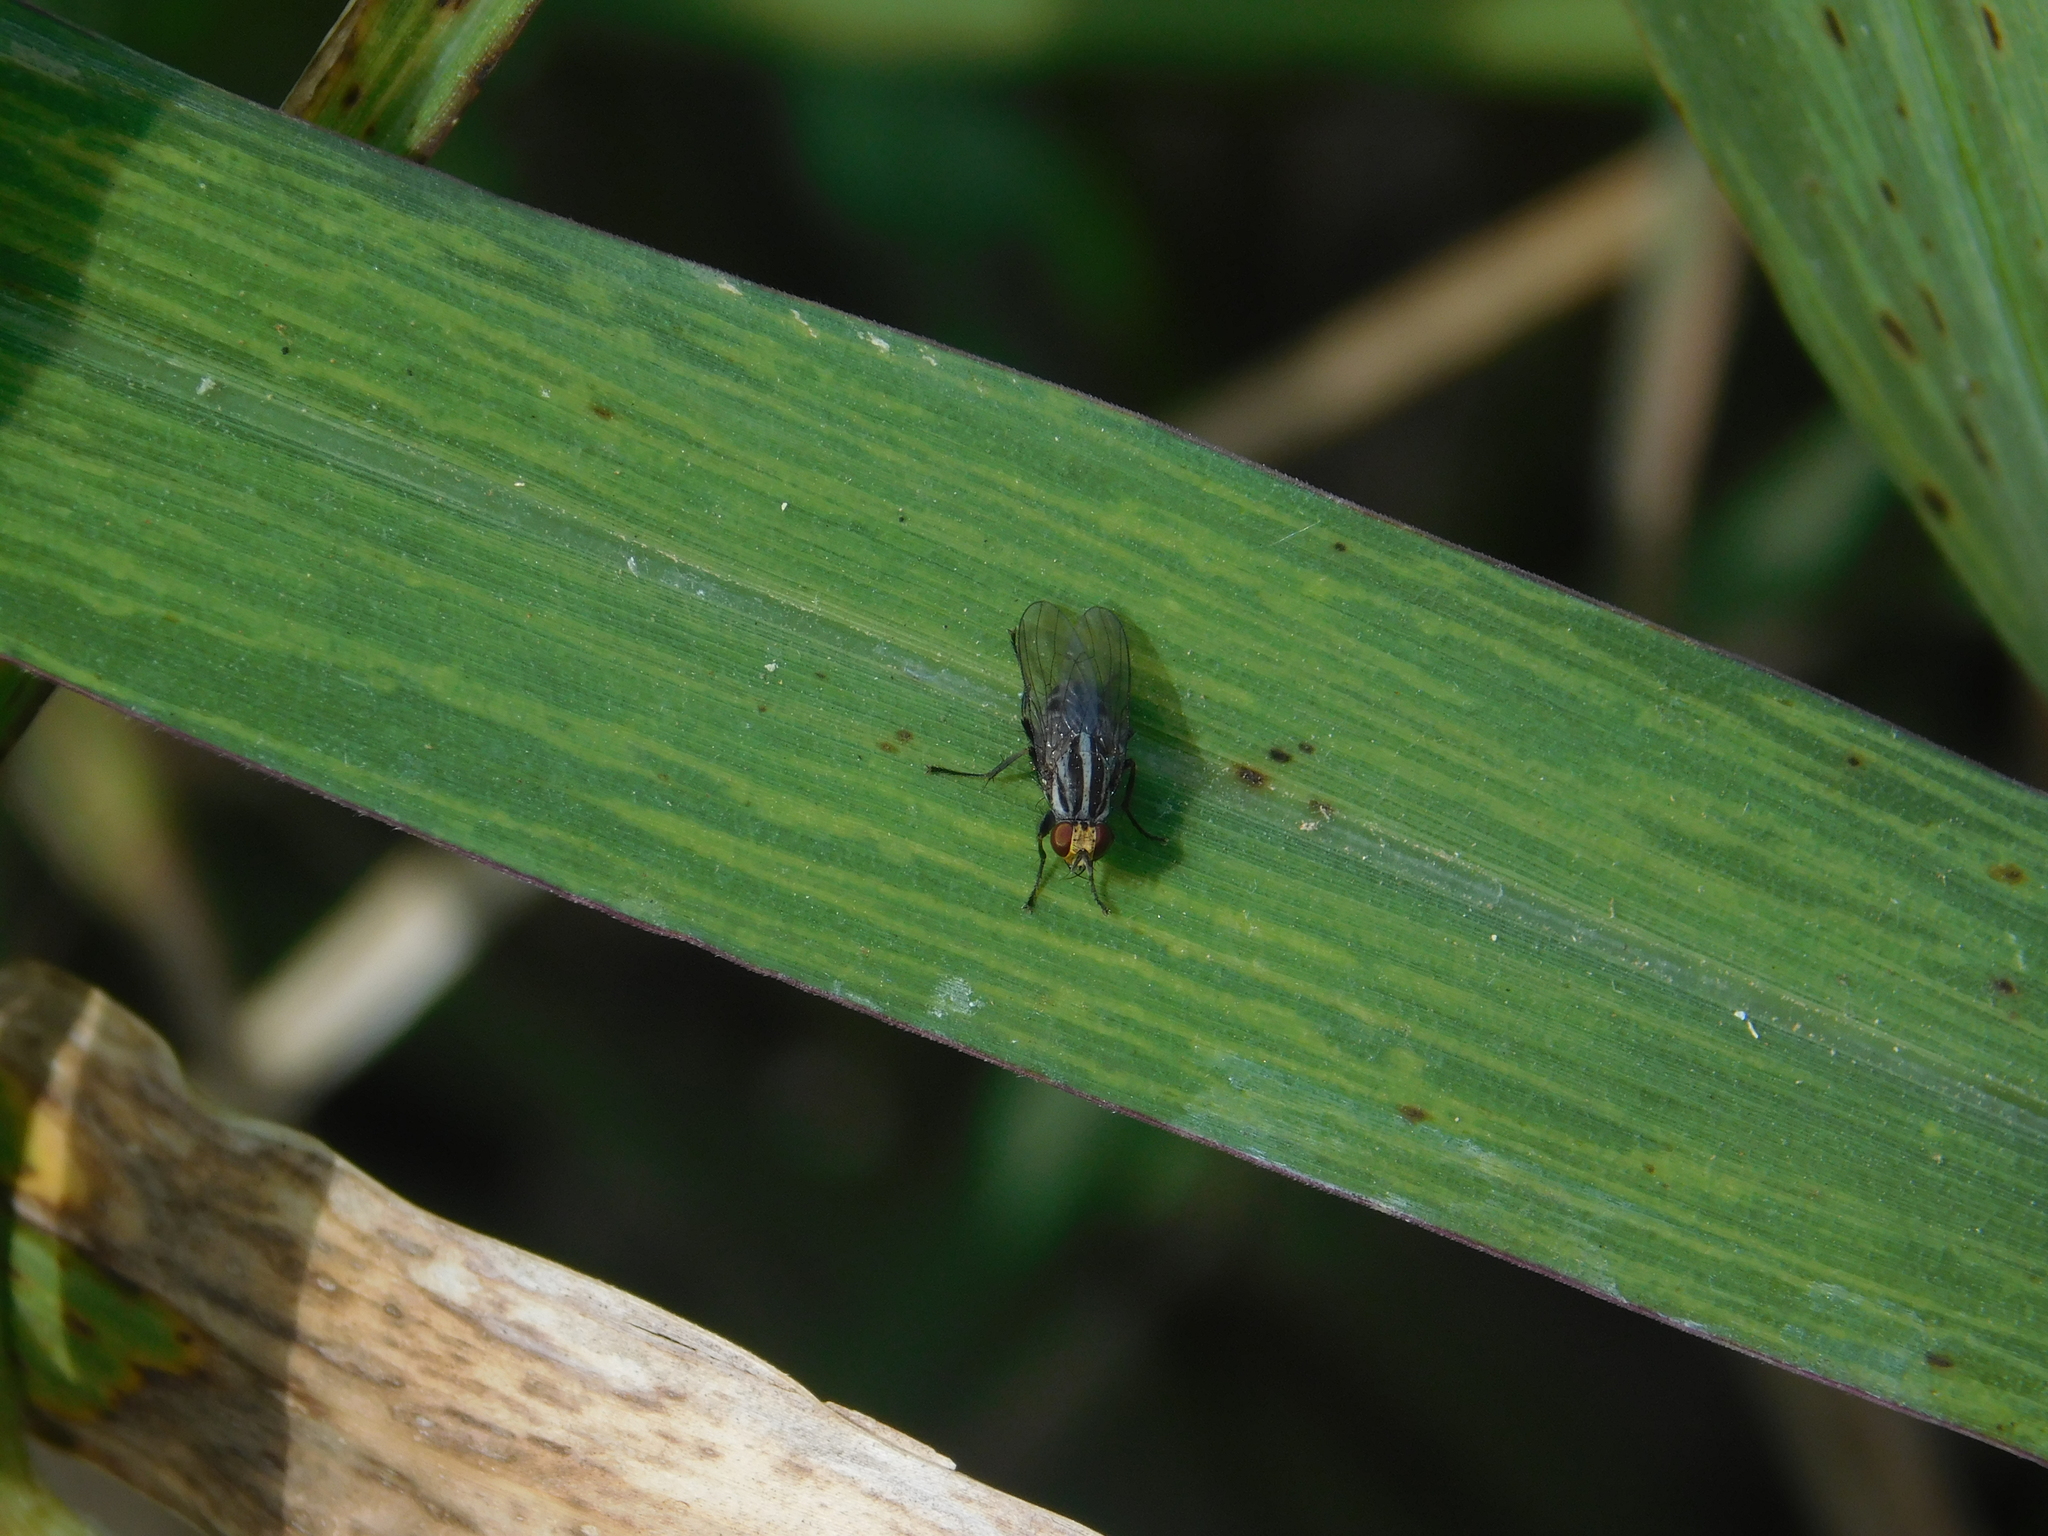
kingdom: Animalia
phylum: Arthropoda
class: Insecta
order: Diptera
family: Muscidae
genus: Neodexiopsis
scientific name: Neodexiopsis paulistensis
